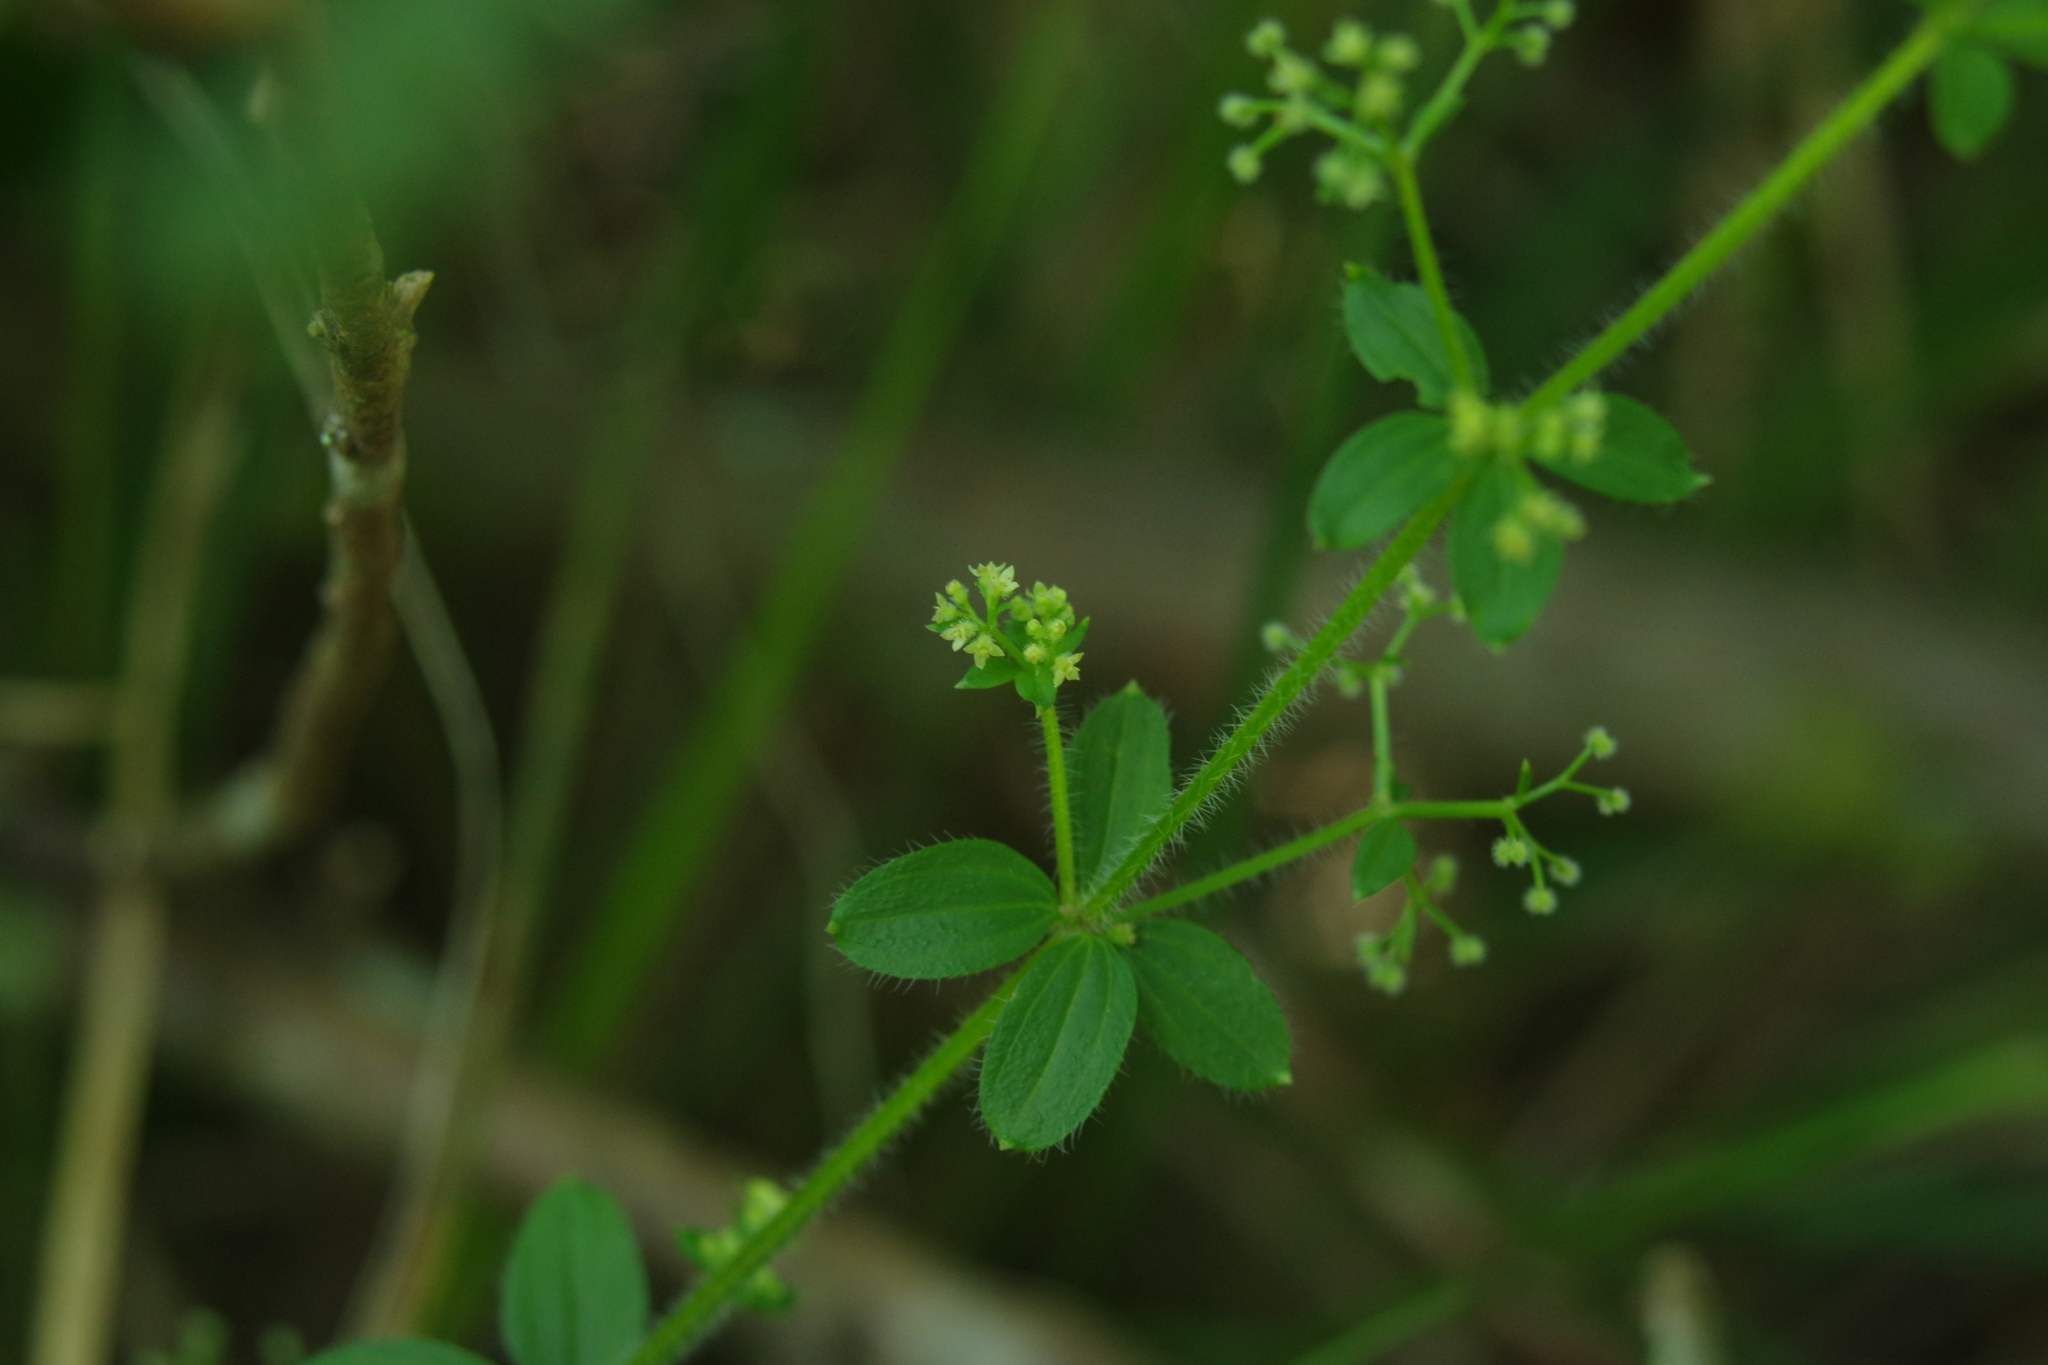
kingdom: Plantae
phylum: Tracheophyta
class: Magnoliopsida
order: Gentianales
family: Rubiaceae
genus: Galium
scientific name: Galium formosense
